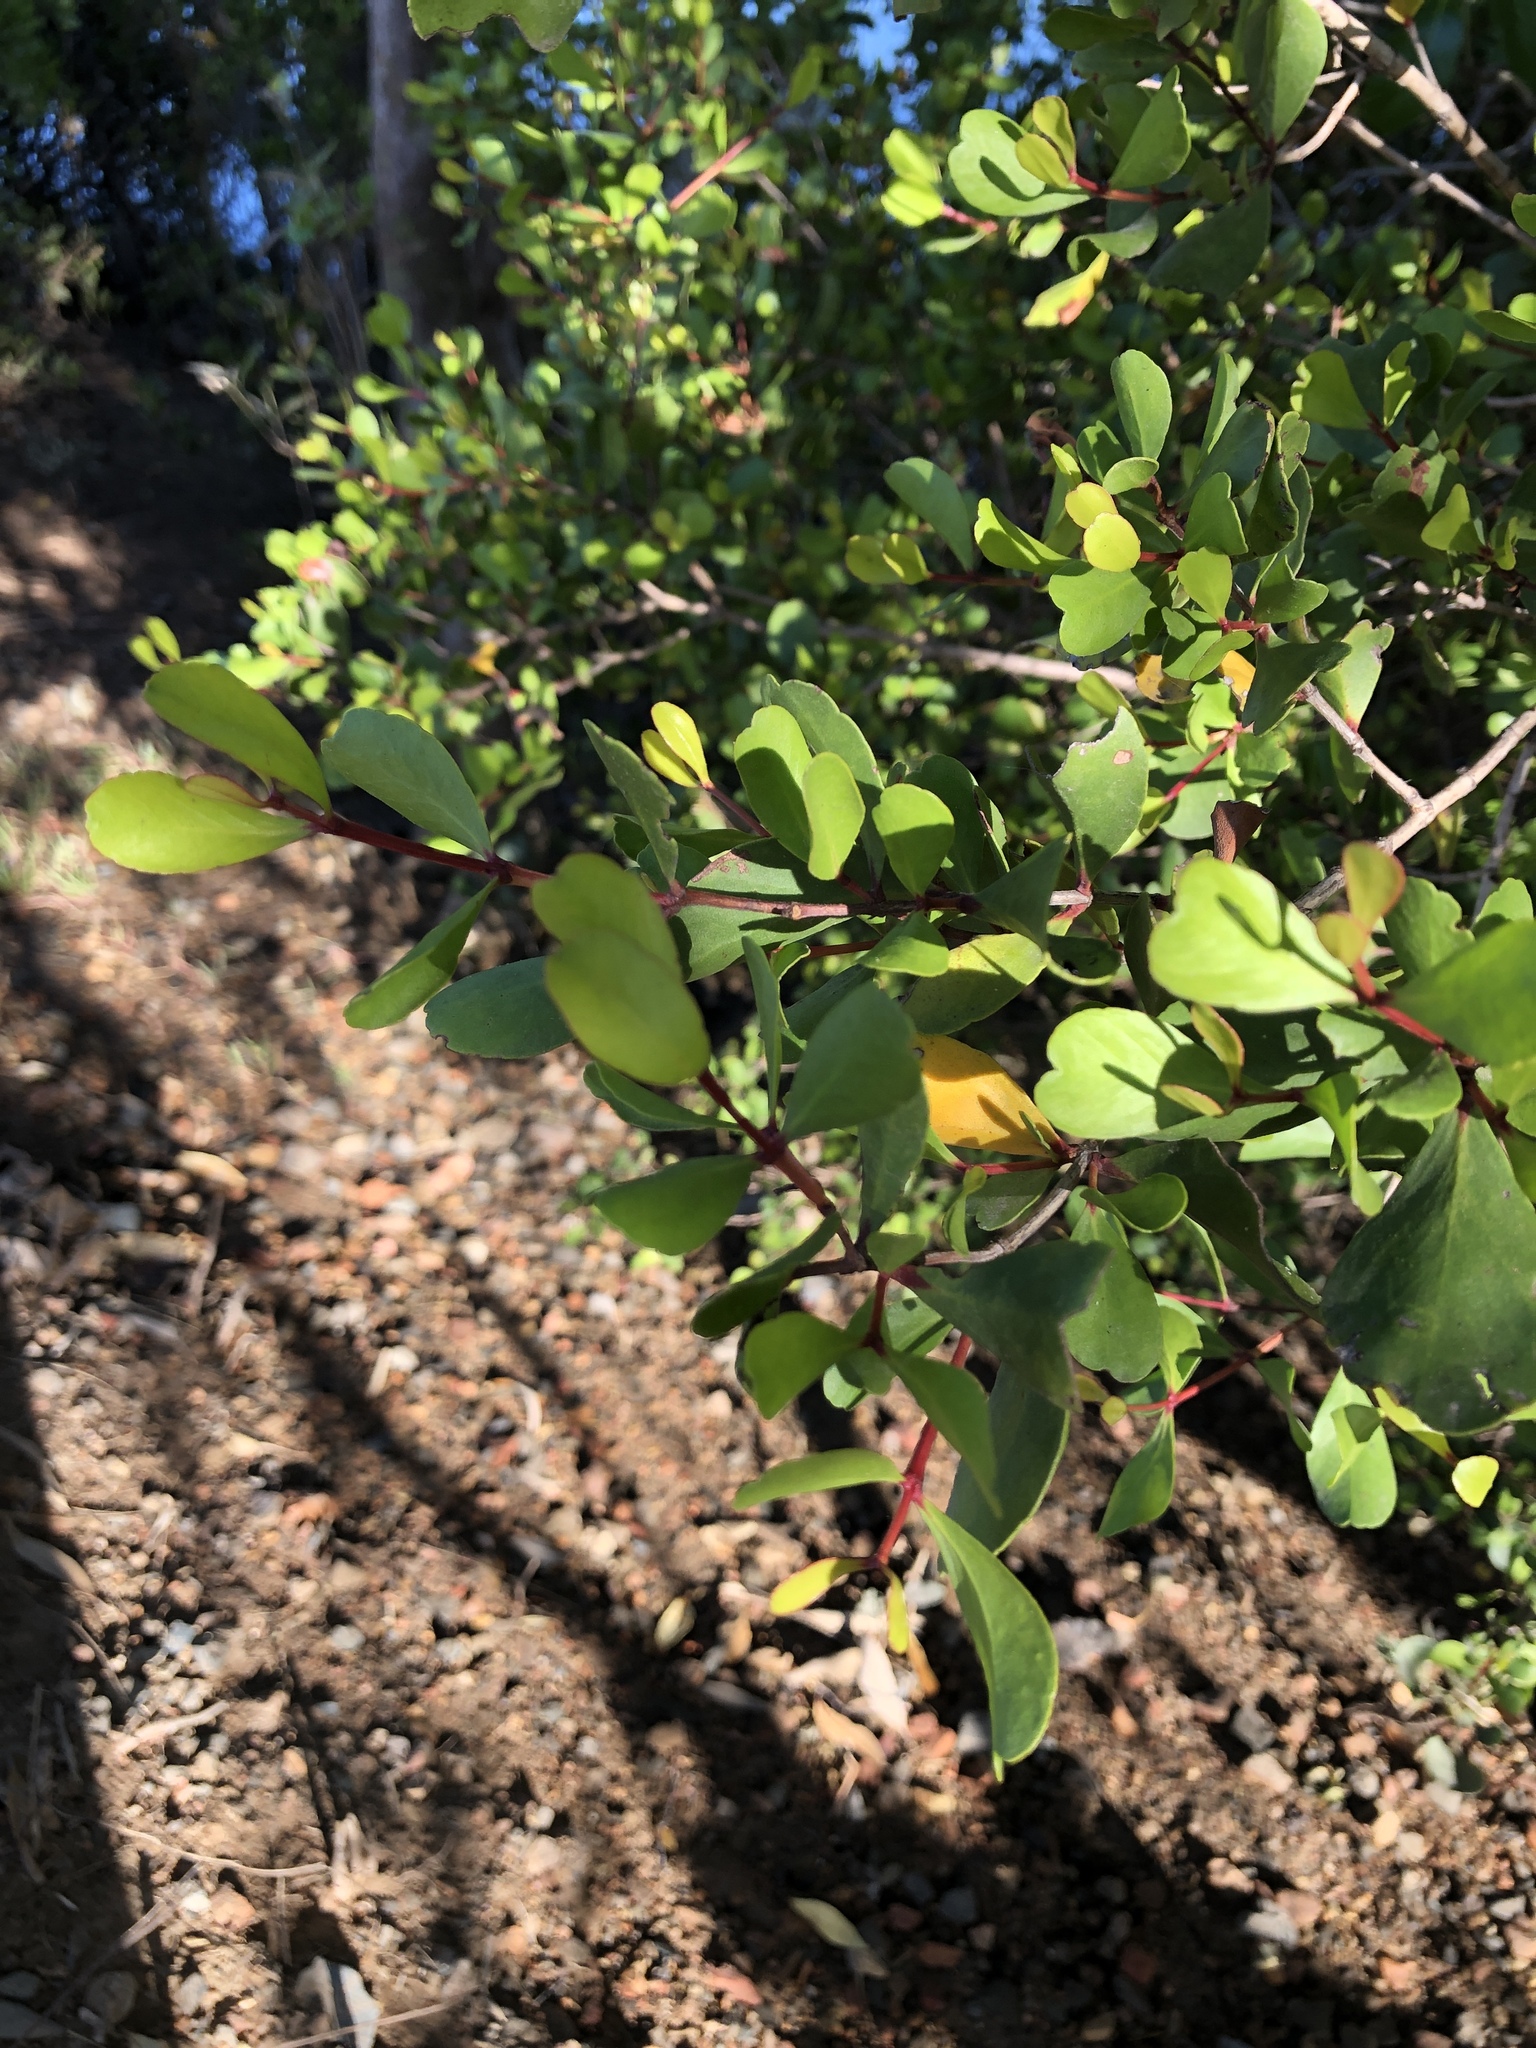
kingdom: Plantae
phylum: Tracheophyta
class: Magnoliopsida
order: Myrtales
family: Myrtaceae
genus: Osbornia
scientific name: Osbornia octodonta
